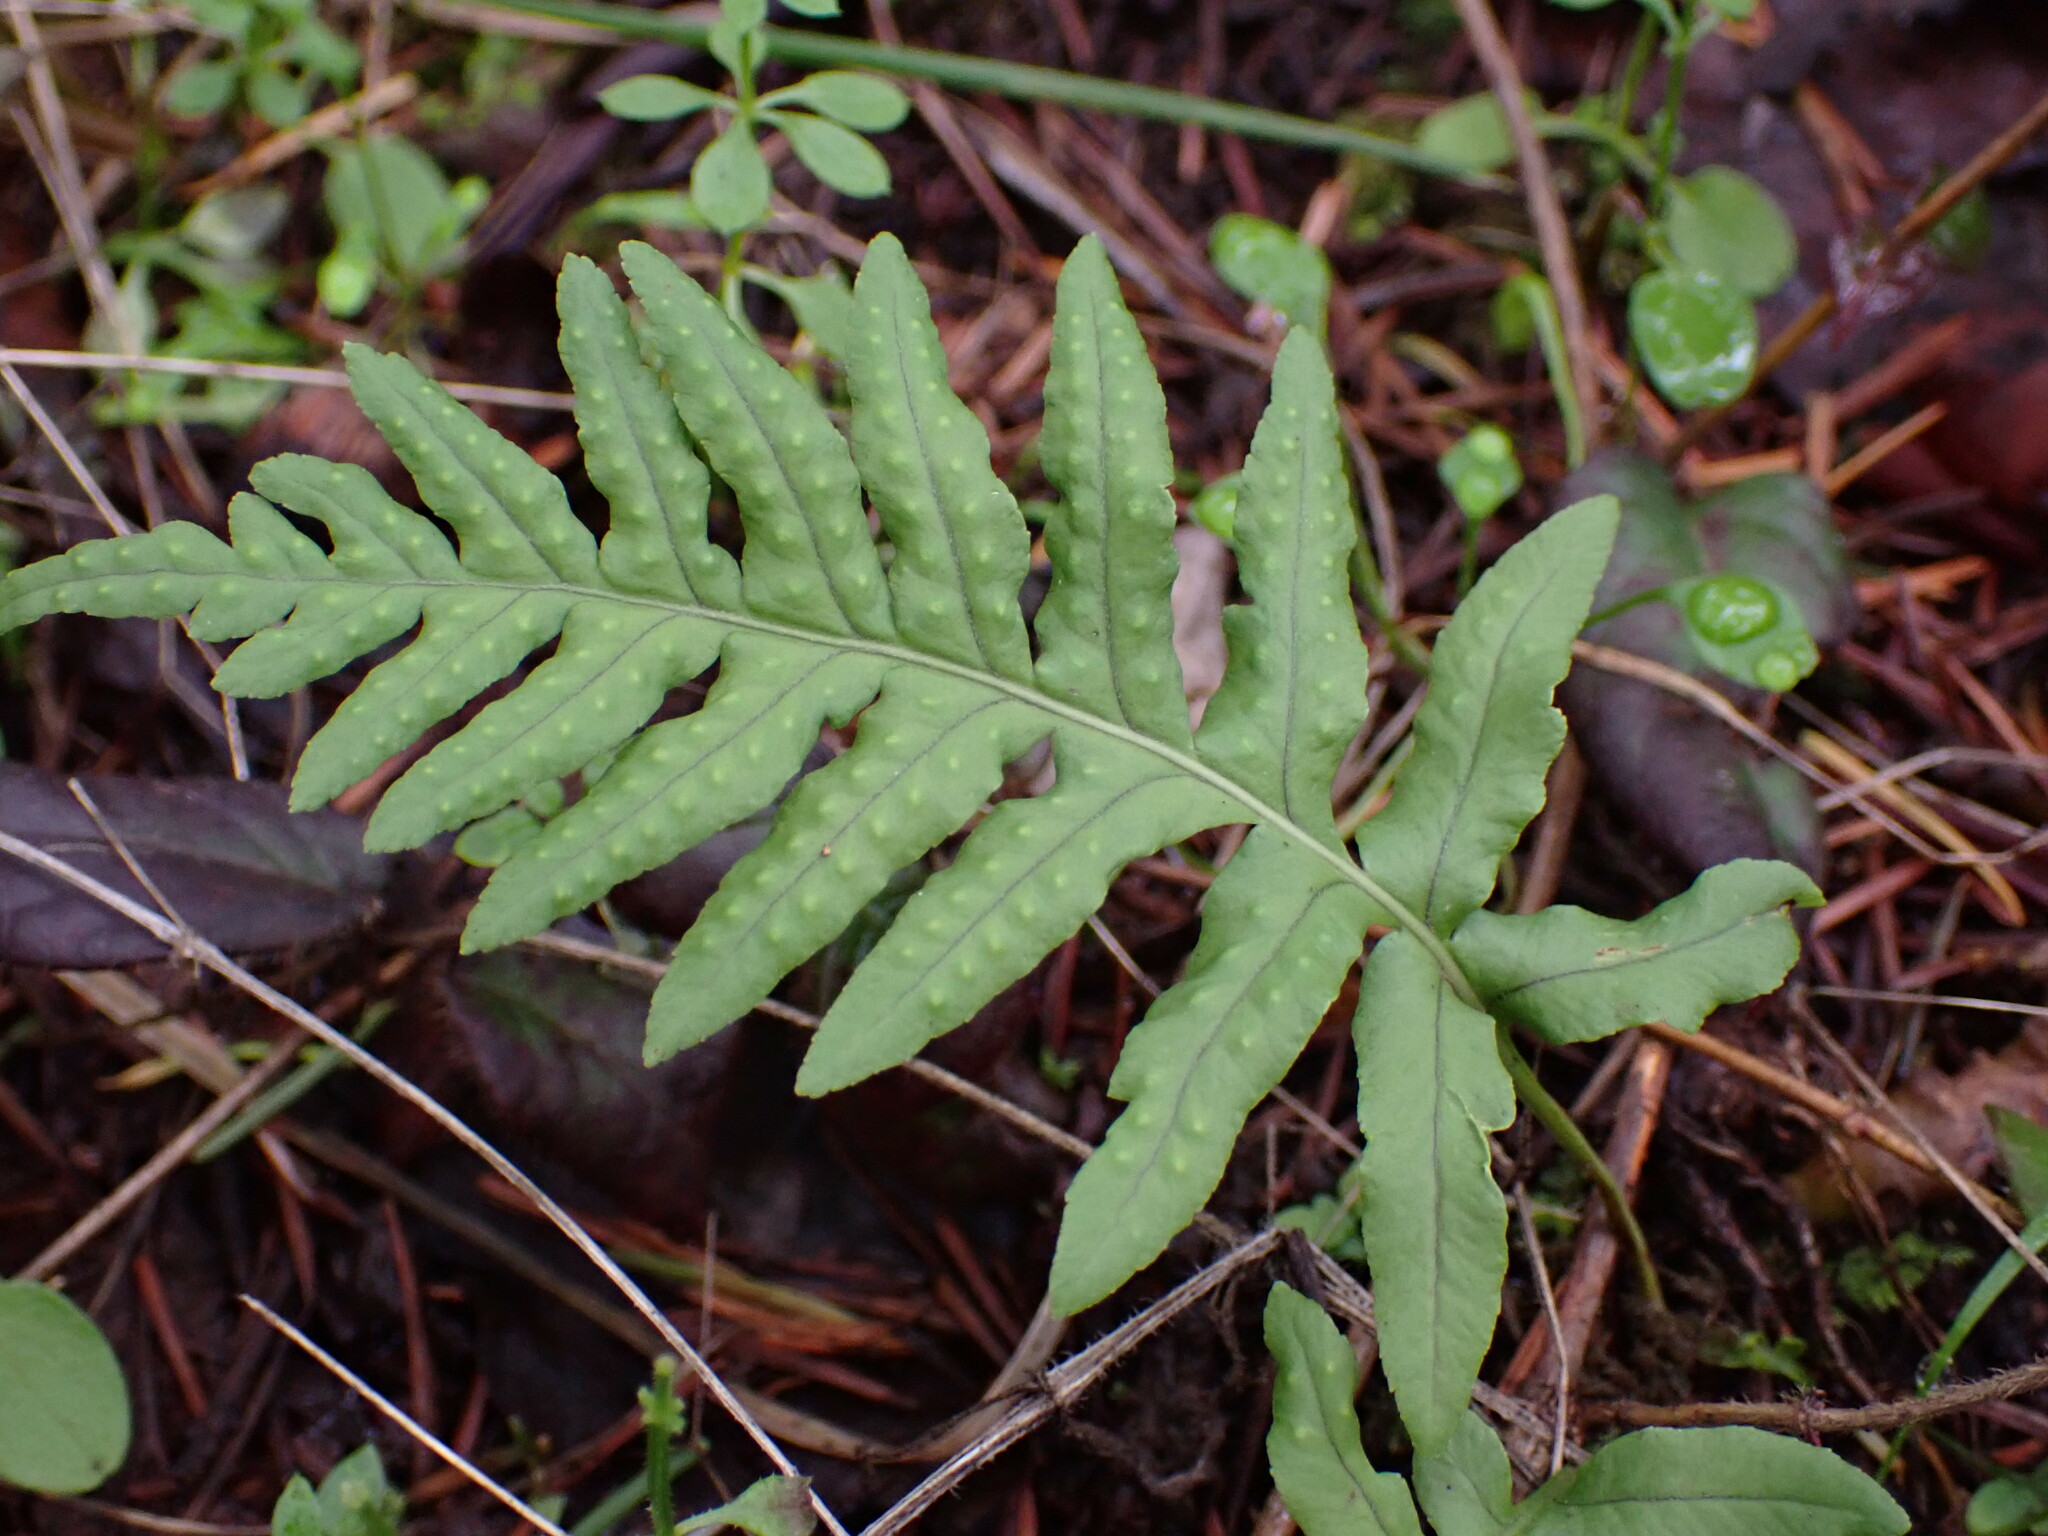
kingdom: Plantae
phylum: Tracheophyta
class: Polypodiopsida
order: Polypodiales
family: Polypodiaceae
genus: Polypodium
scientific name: Polypodium glycyrrhiza
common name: Licorice fern
